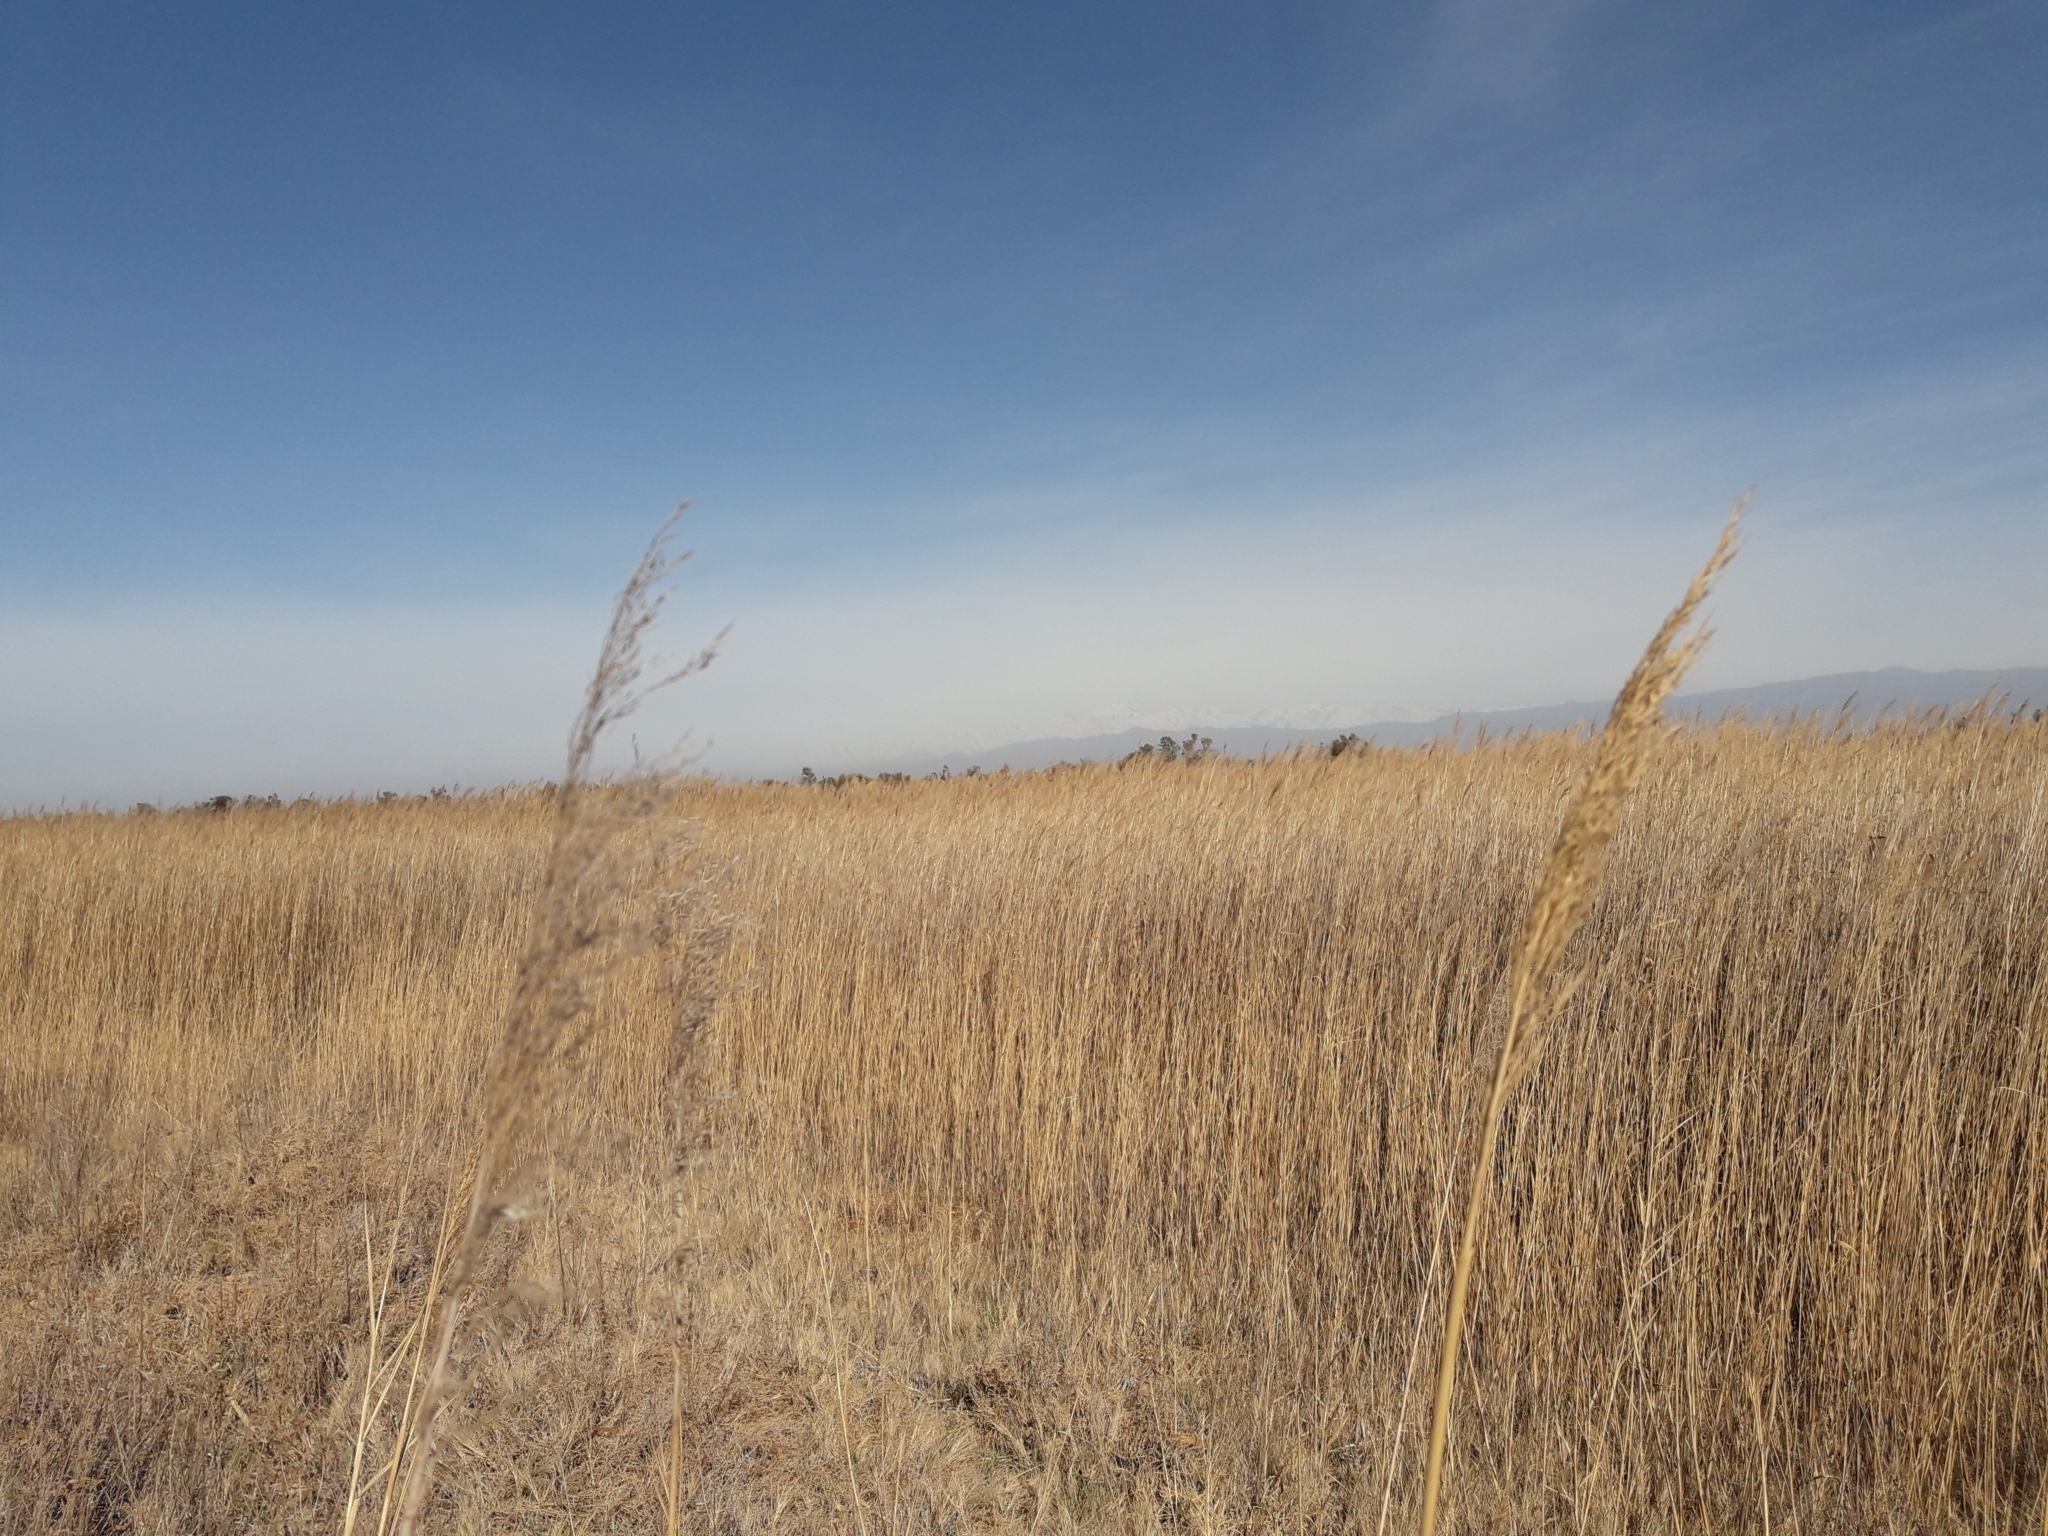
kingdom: Plantae
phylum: Tracheophyta
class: Liliopsida
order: Poales
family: Poaceae
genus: Phragmites
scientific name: Phragmites australis
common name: Common reed
